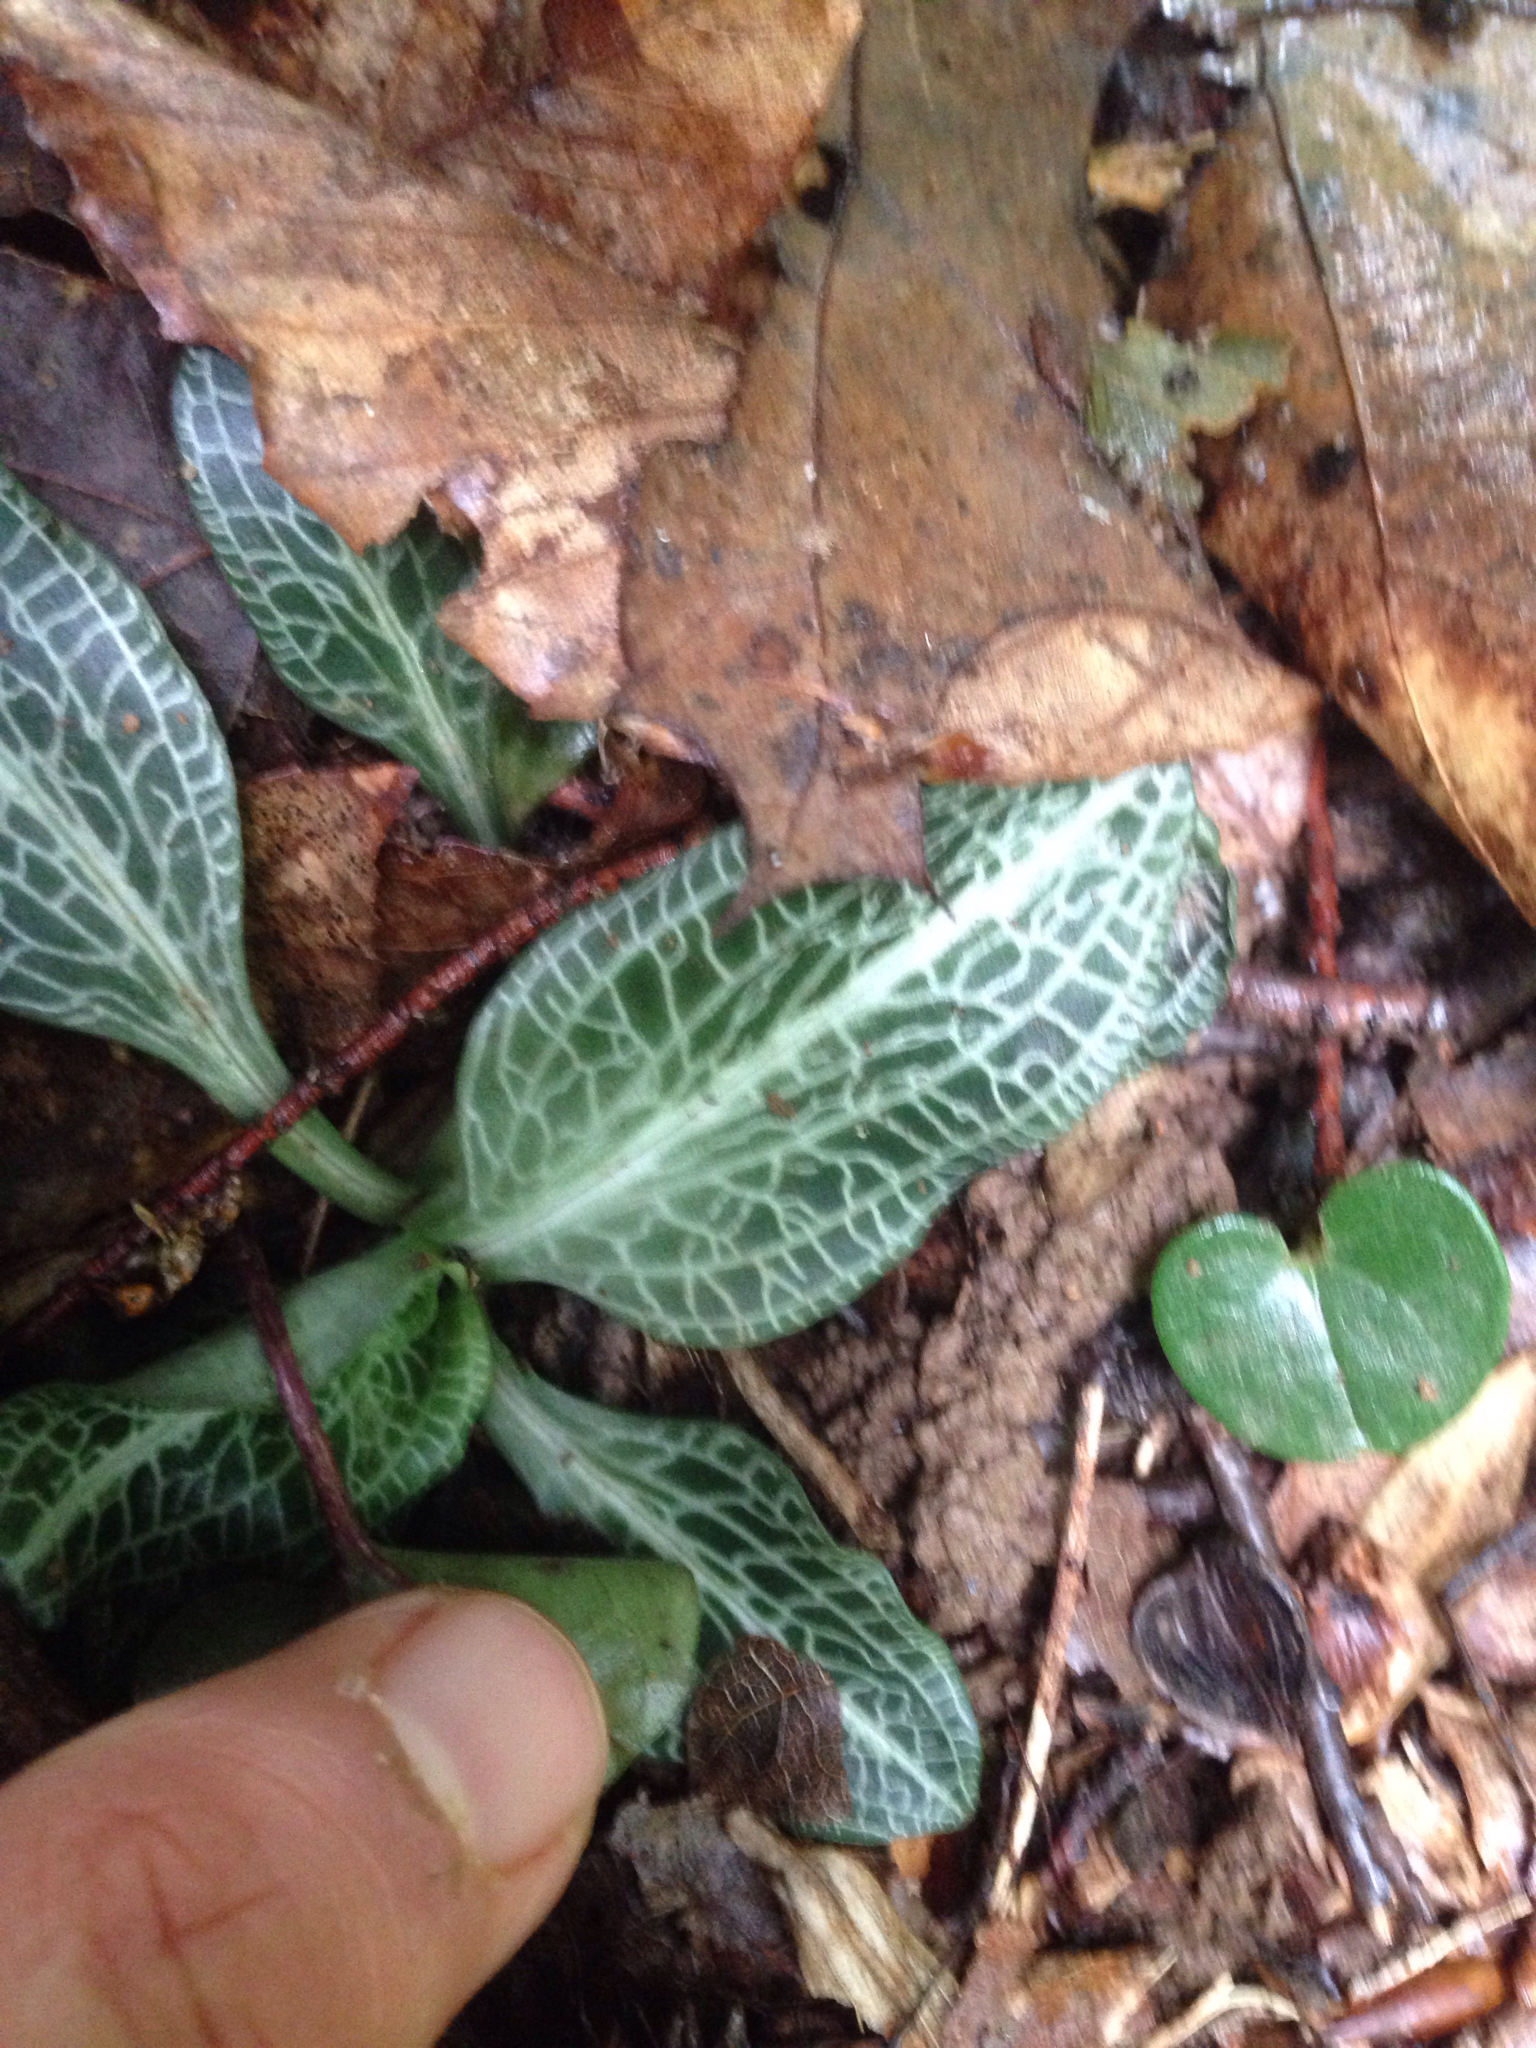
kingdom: Plantae
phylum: Tracheophyta
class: Liliopsida
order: Asparagales
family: Orchidaceae
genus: Goodyera
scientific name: Goodyera pubescens
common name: Downy rattlesnake-plantain
